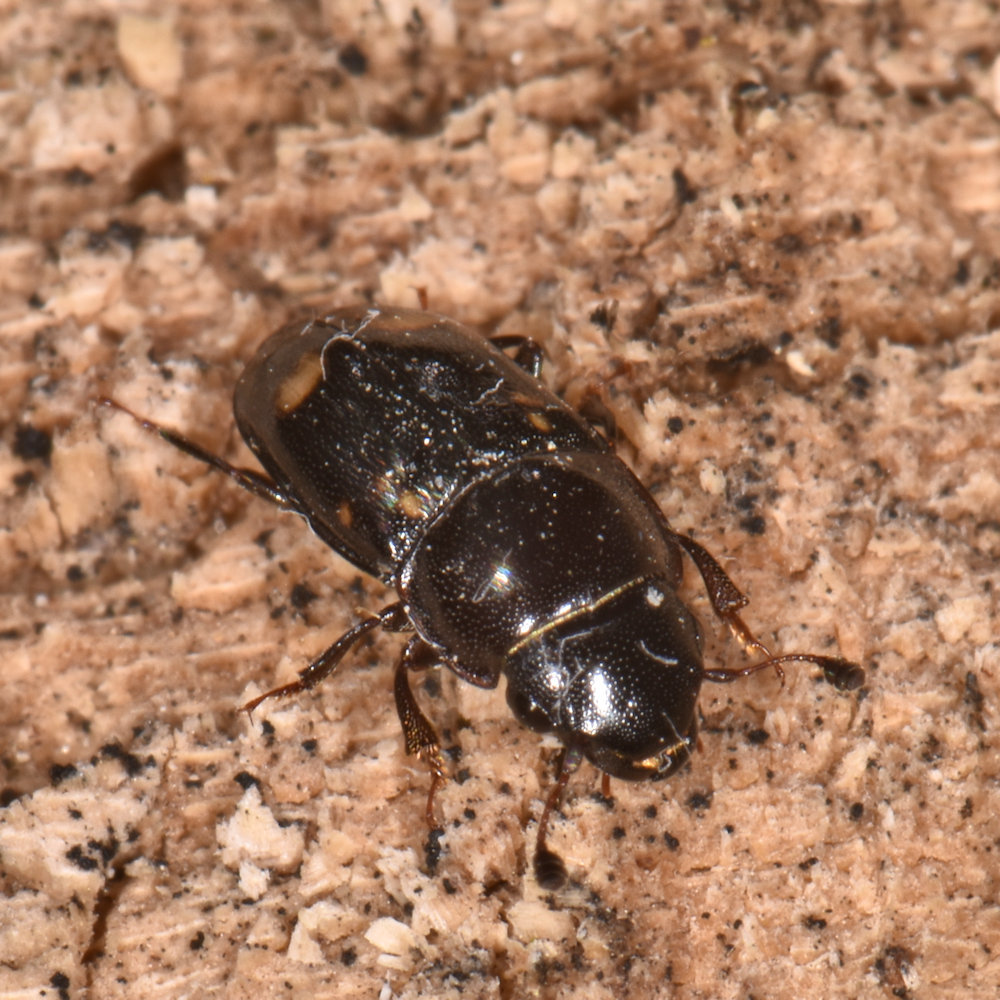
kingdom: Animalia
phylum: Arthropoda
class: Insecta
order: Coleoptera
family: Nitidulidae
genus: Glischrochilus
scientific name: Glischrochilus quadrisignatus
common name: Picnic beetle
